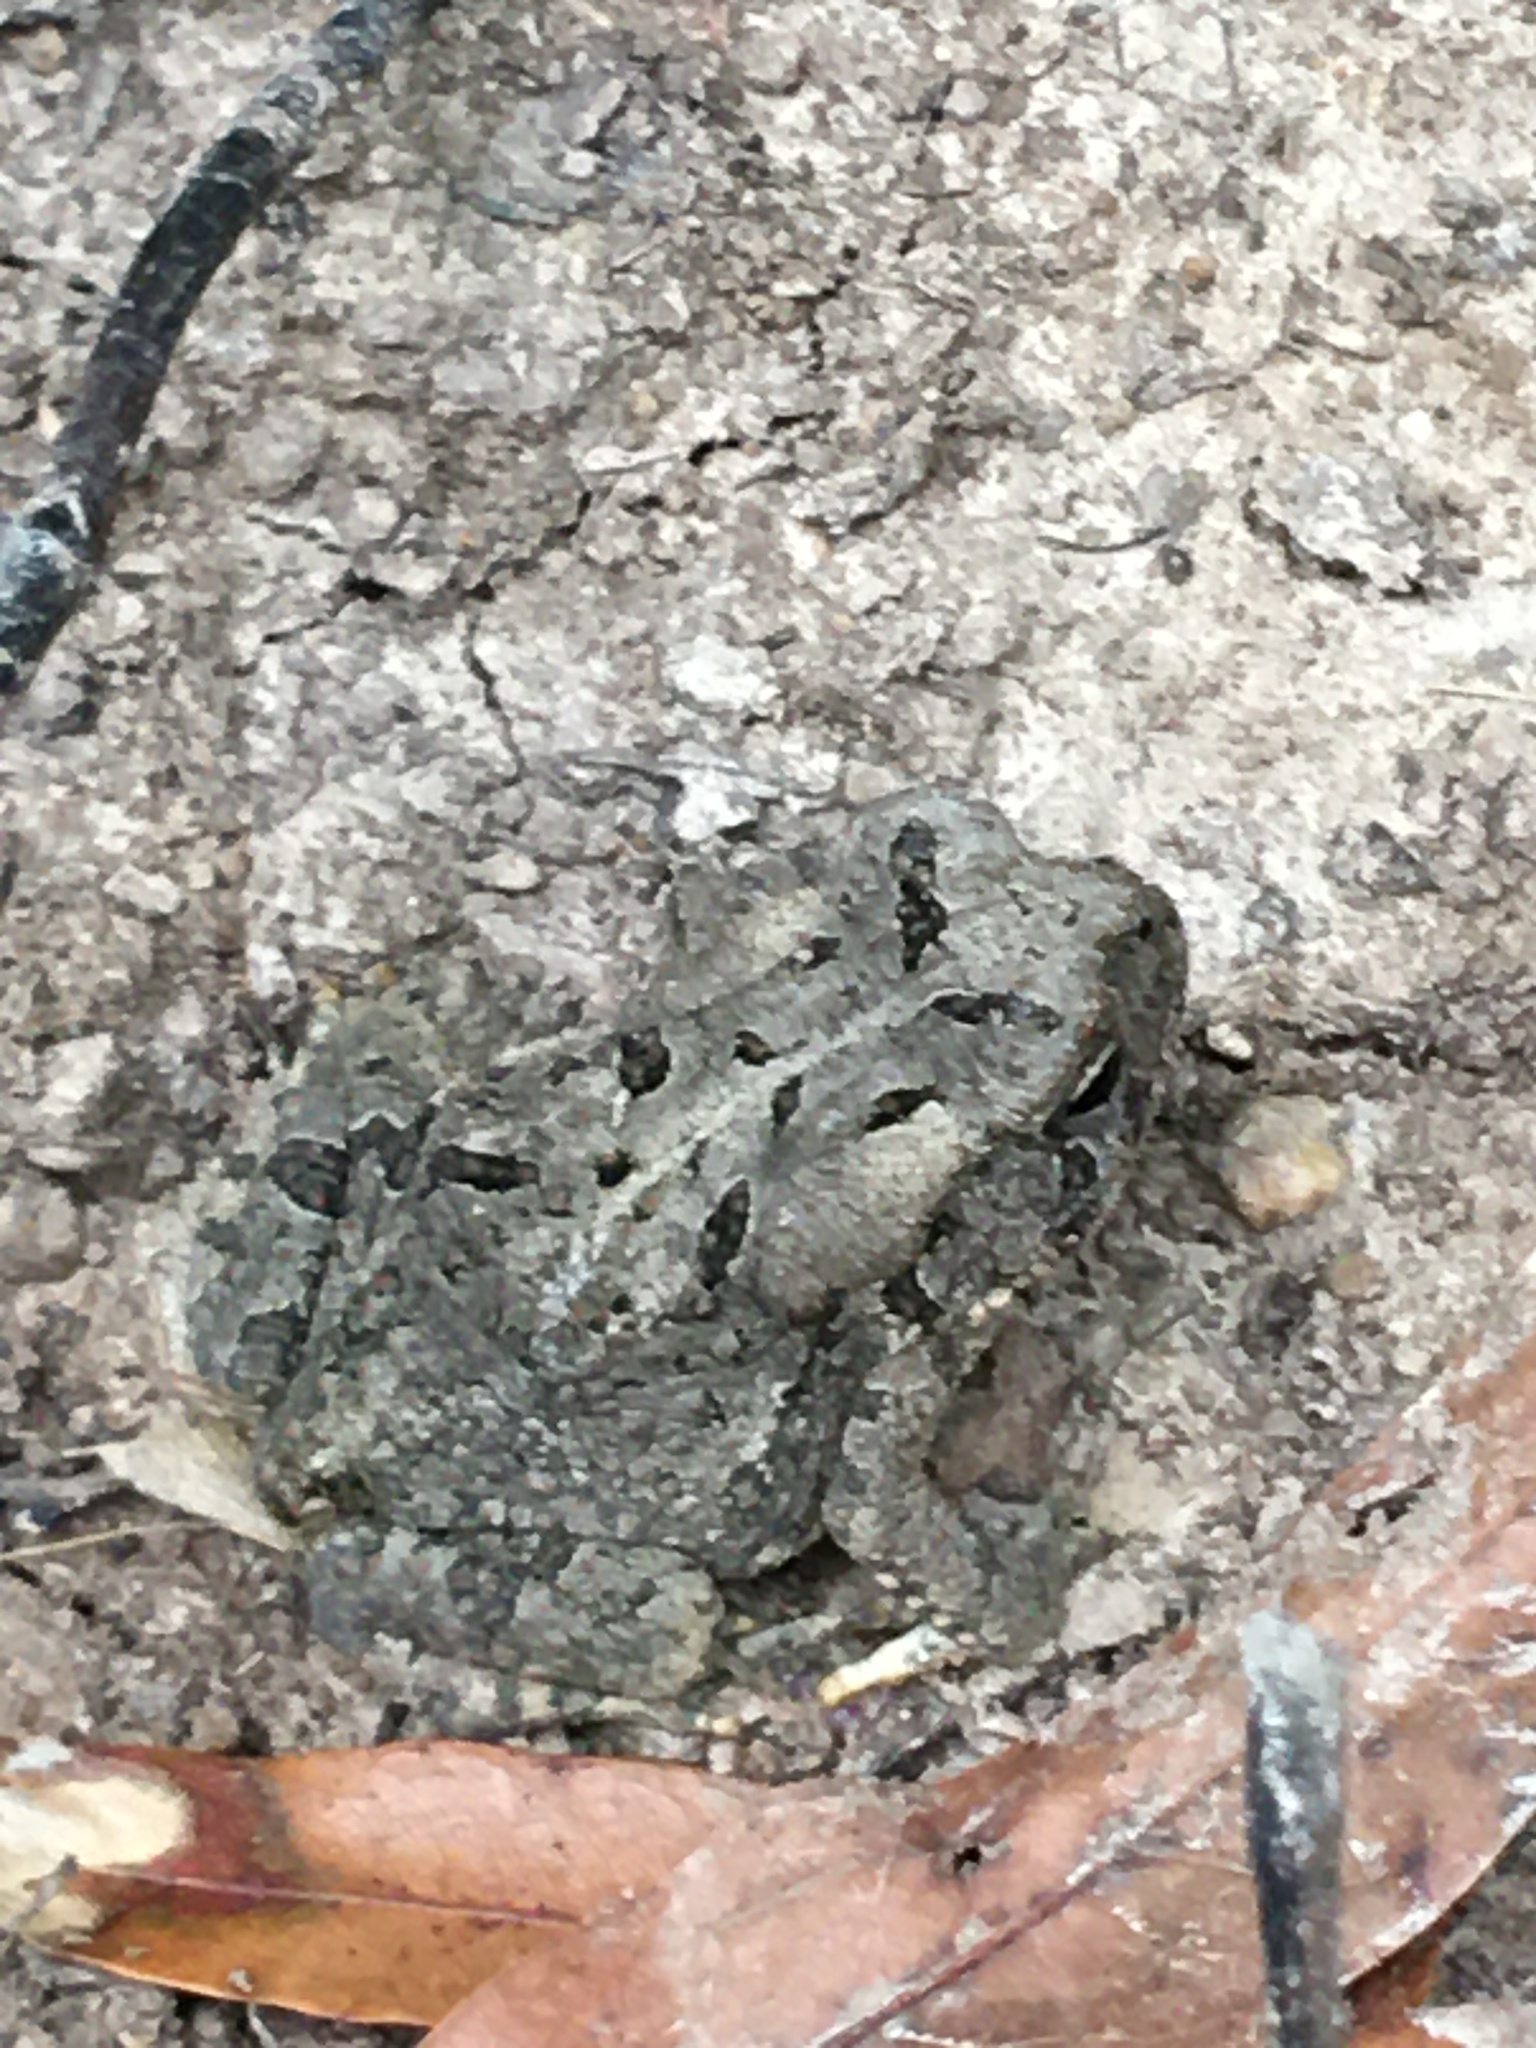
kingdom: Animalia
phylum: Chordata
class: Amphibia
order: Anura
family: Bufonidae
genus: Anaxyrus
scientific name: Anaxyrus fowleri
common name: Fowler's toad
